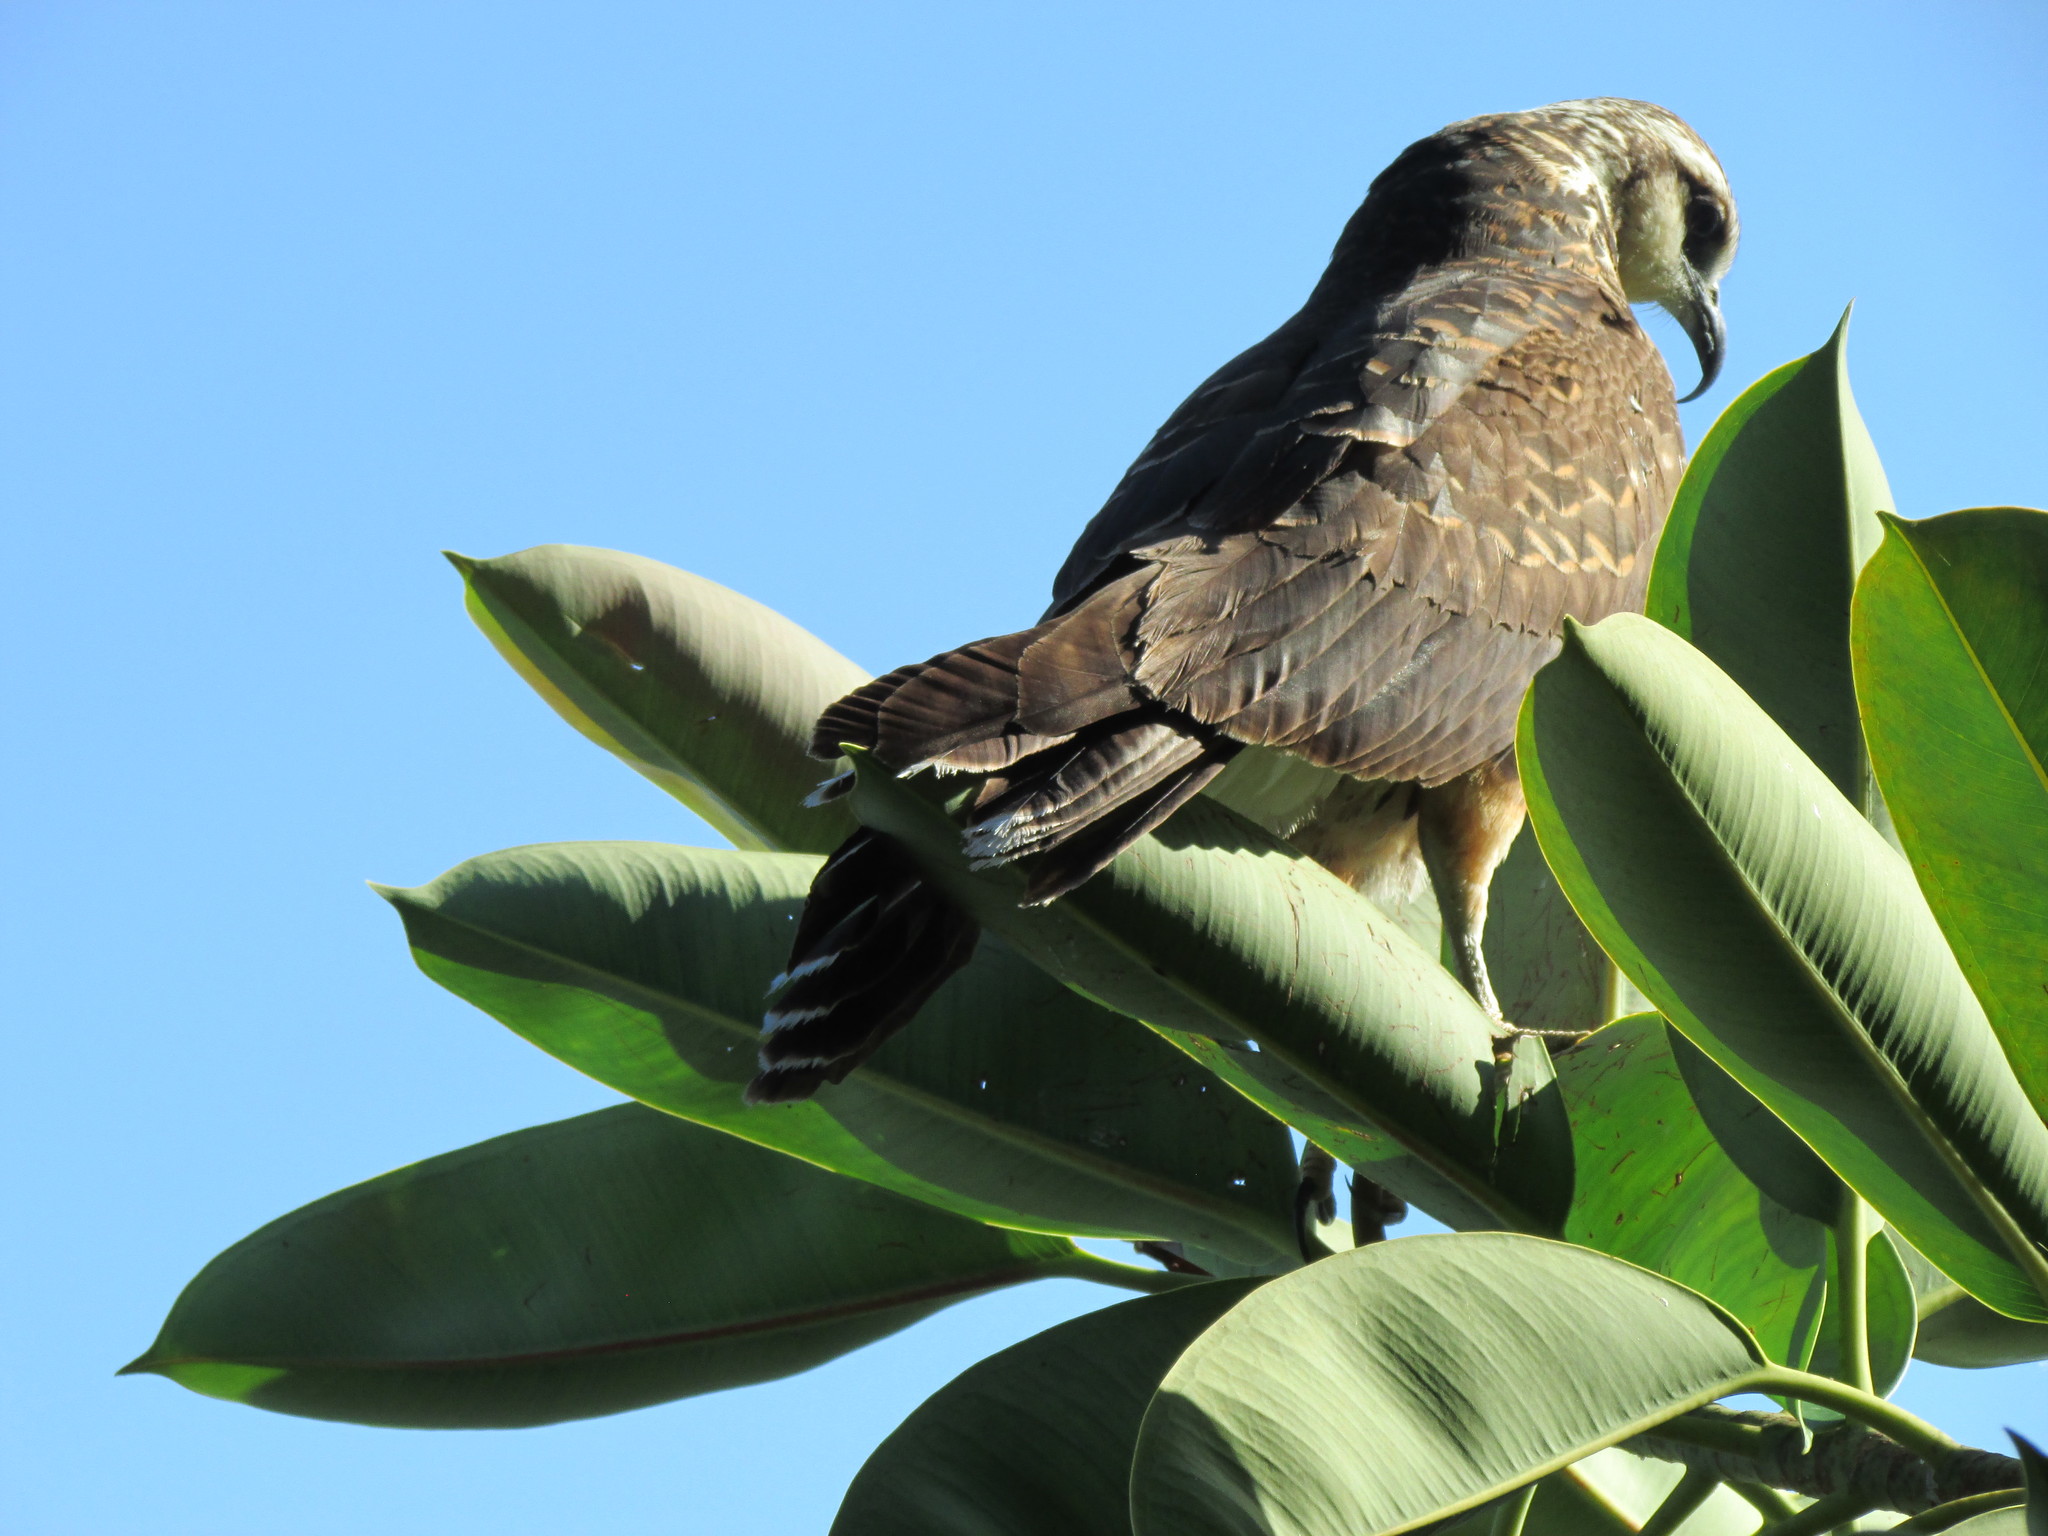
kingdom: Animalia
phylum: Chordata
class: Aves
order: Accipitriformes
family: Accipitridae
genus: Rostrhamus
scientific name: Rostrhamus sociabilis
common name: Snail kite
